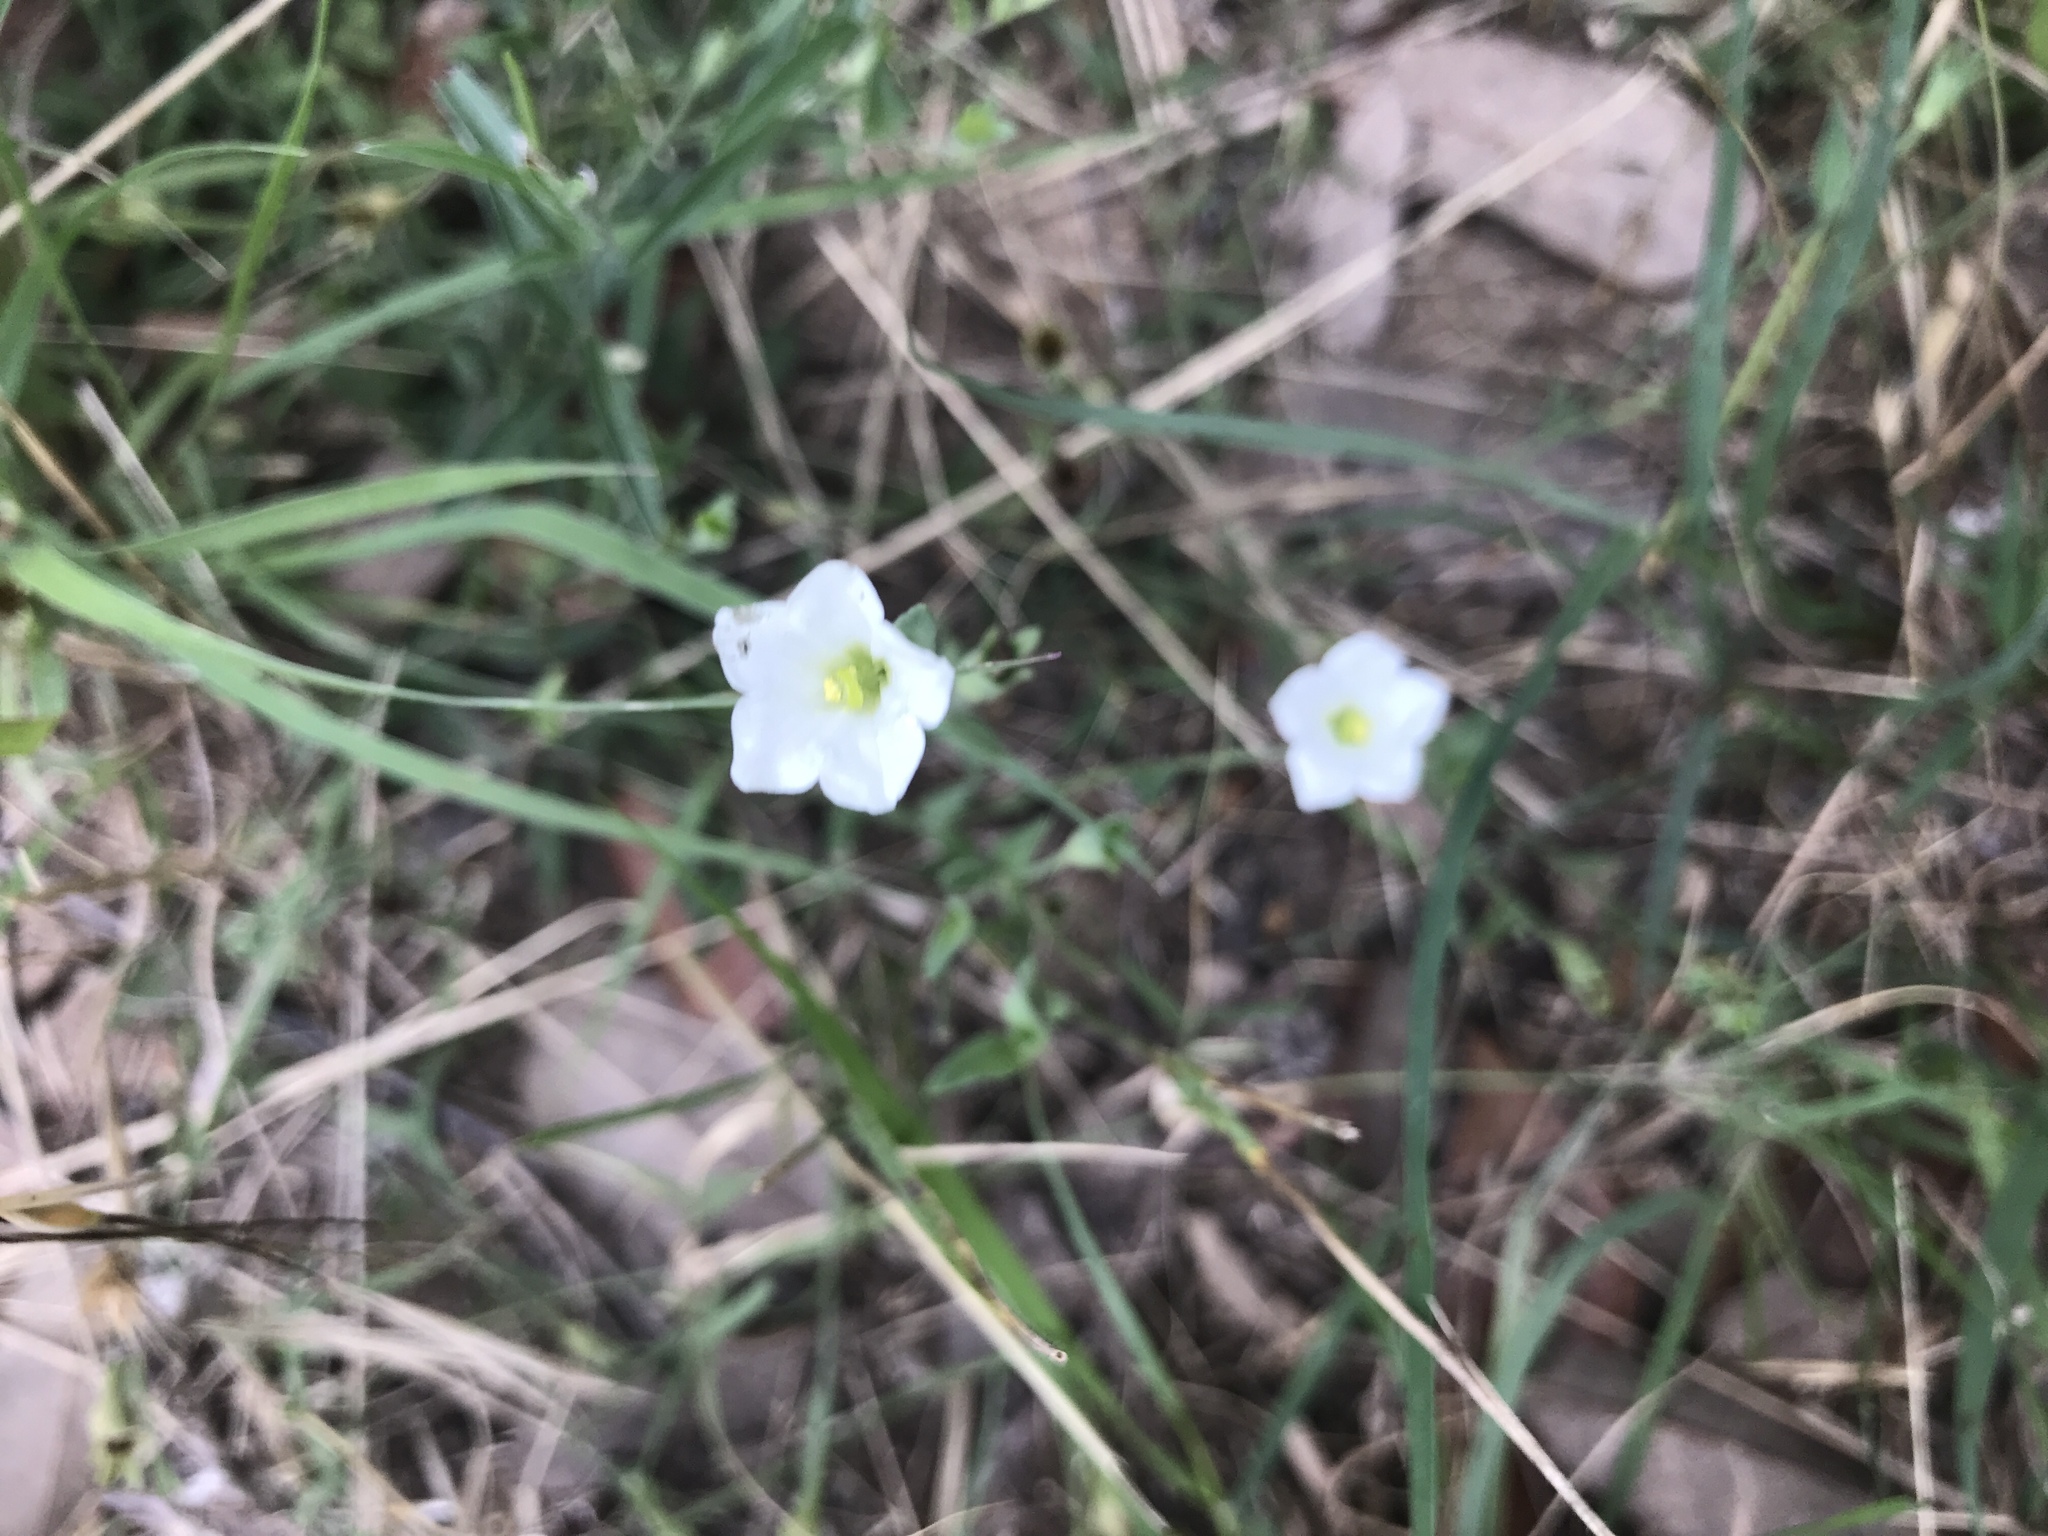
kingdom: Plantae
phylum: Tracheophyta
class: Magnoliopsida
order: Solanales
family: Solanaceae
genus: Salpiglossis
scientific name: Salpiglossis erecta
